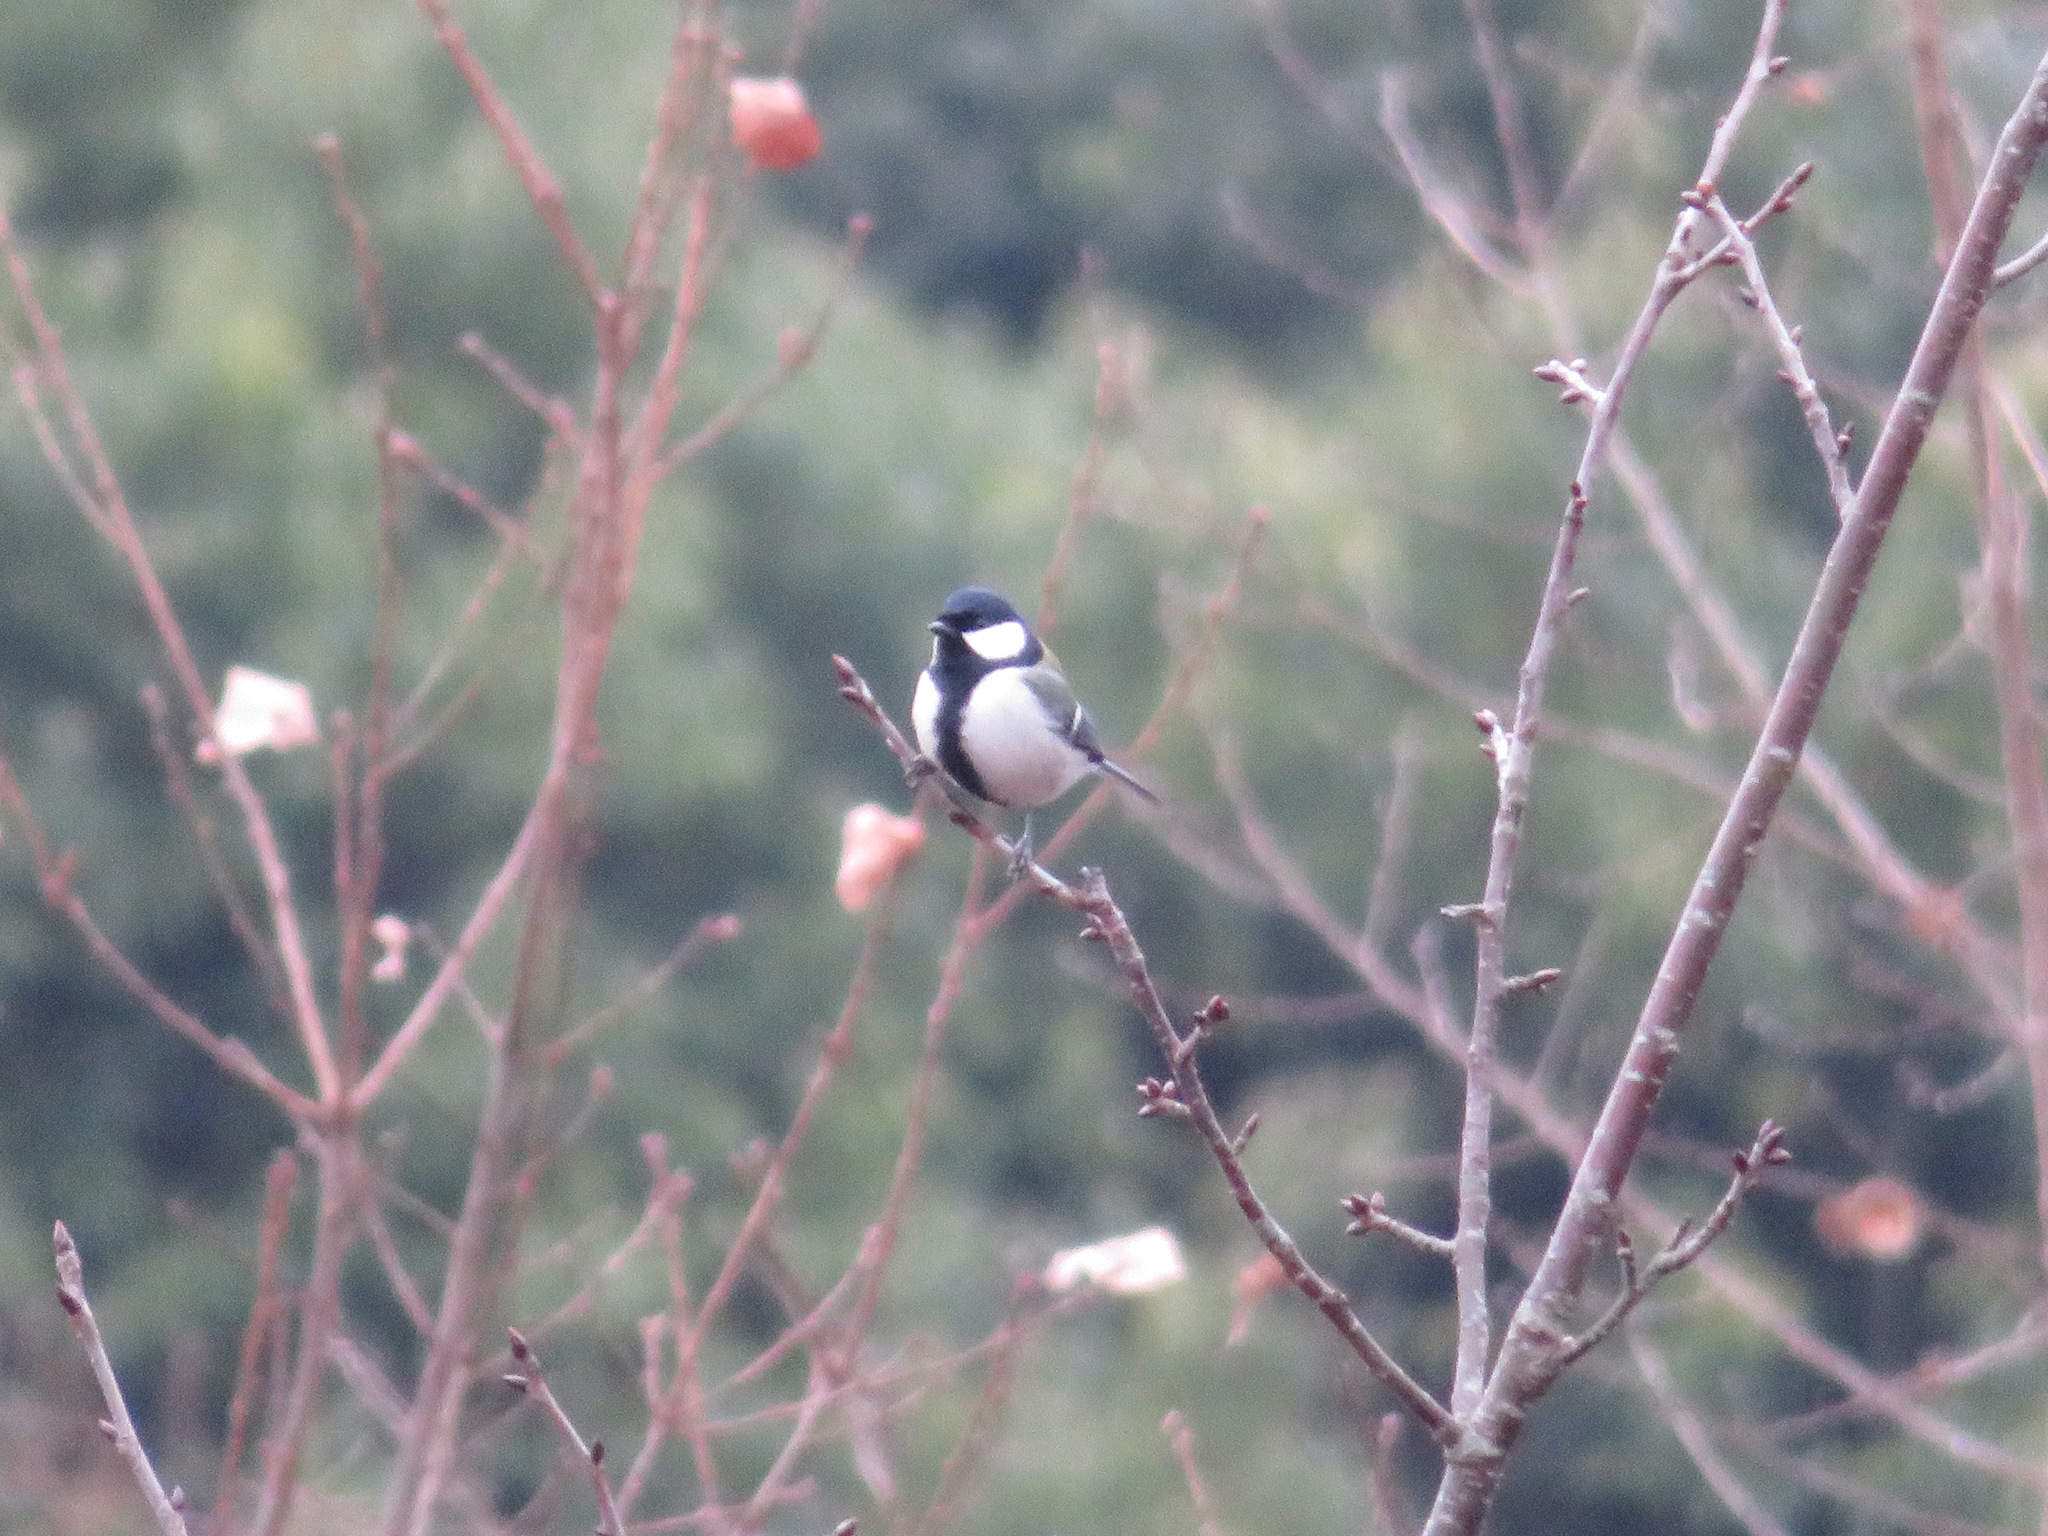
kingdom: Animalia
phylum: Chordata
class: Aves
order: Passeriformes
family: Paridae
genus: Parus
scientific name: Parus minor
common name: Japanese tit
